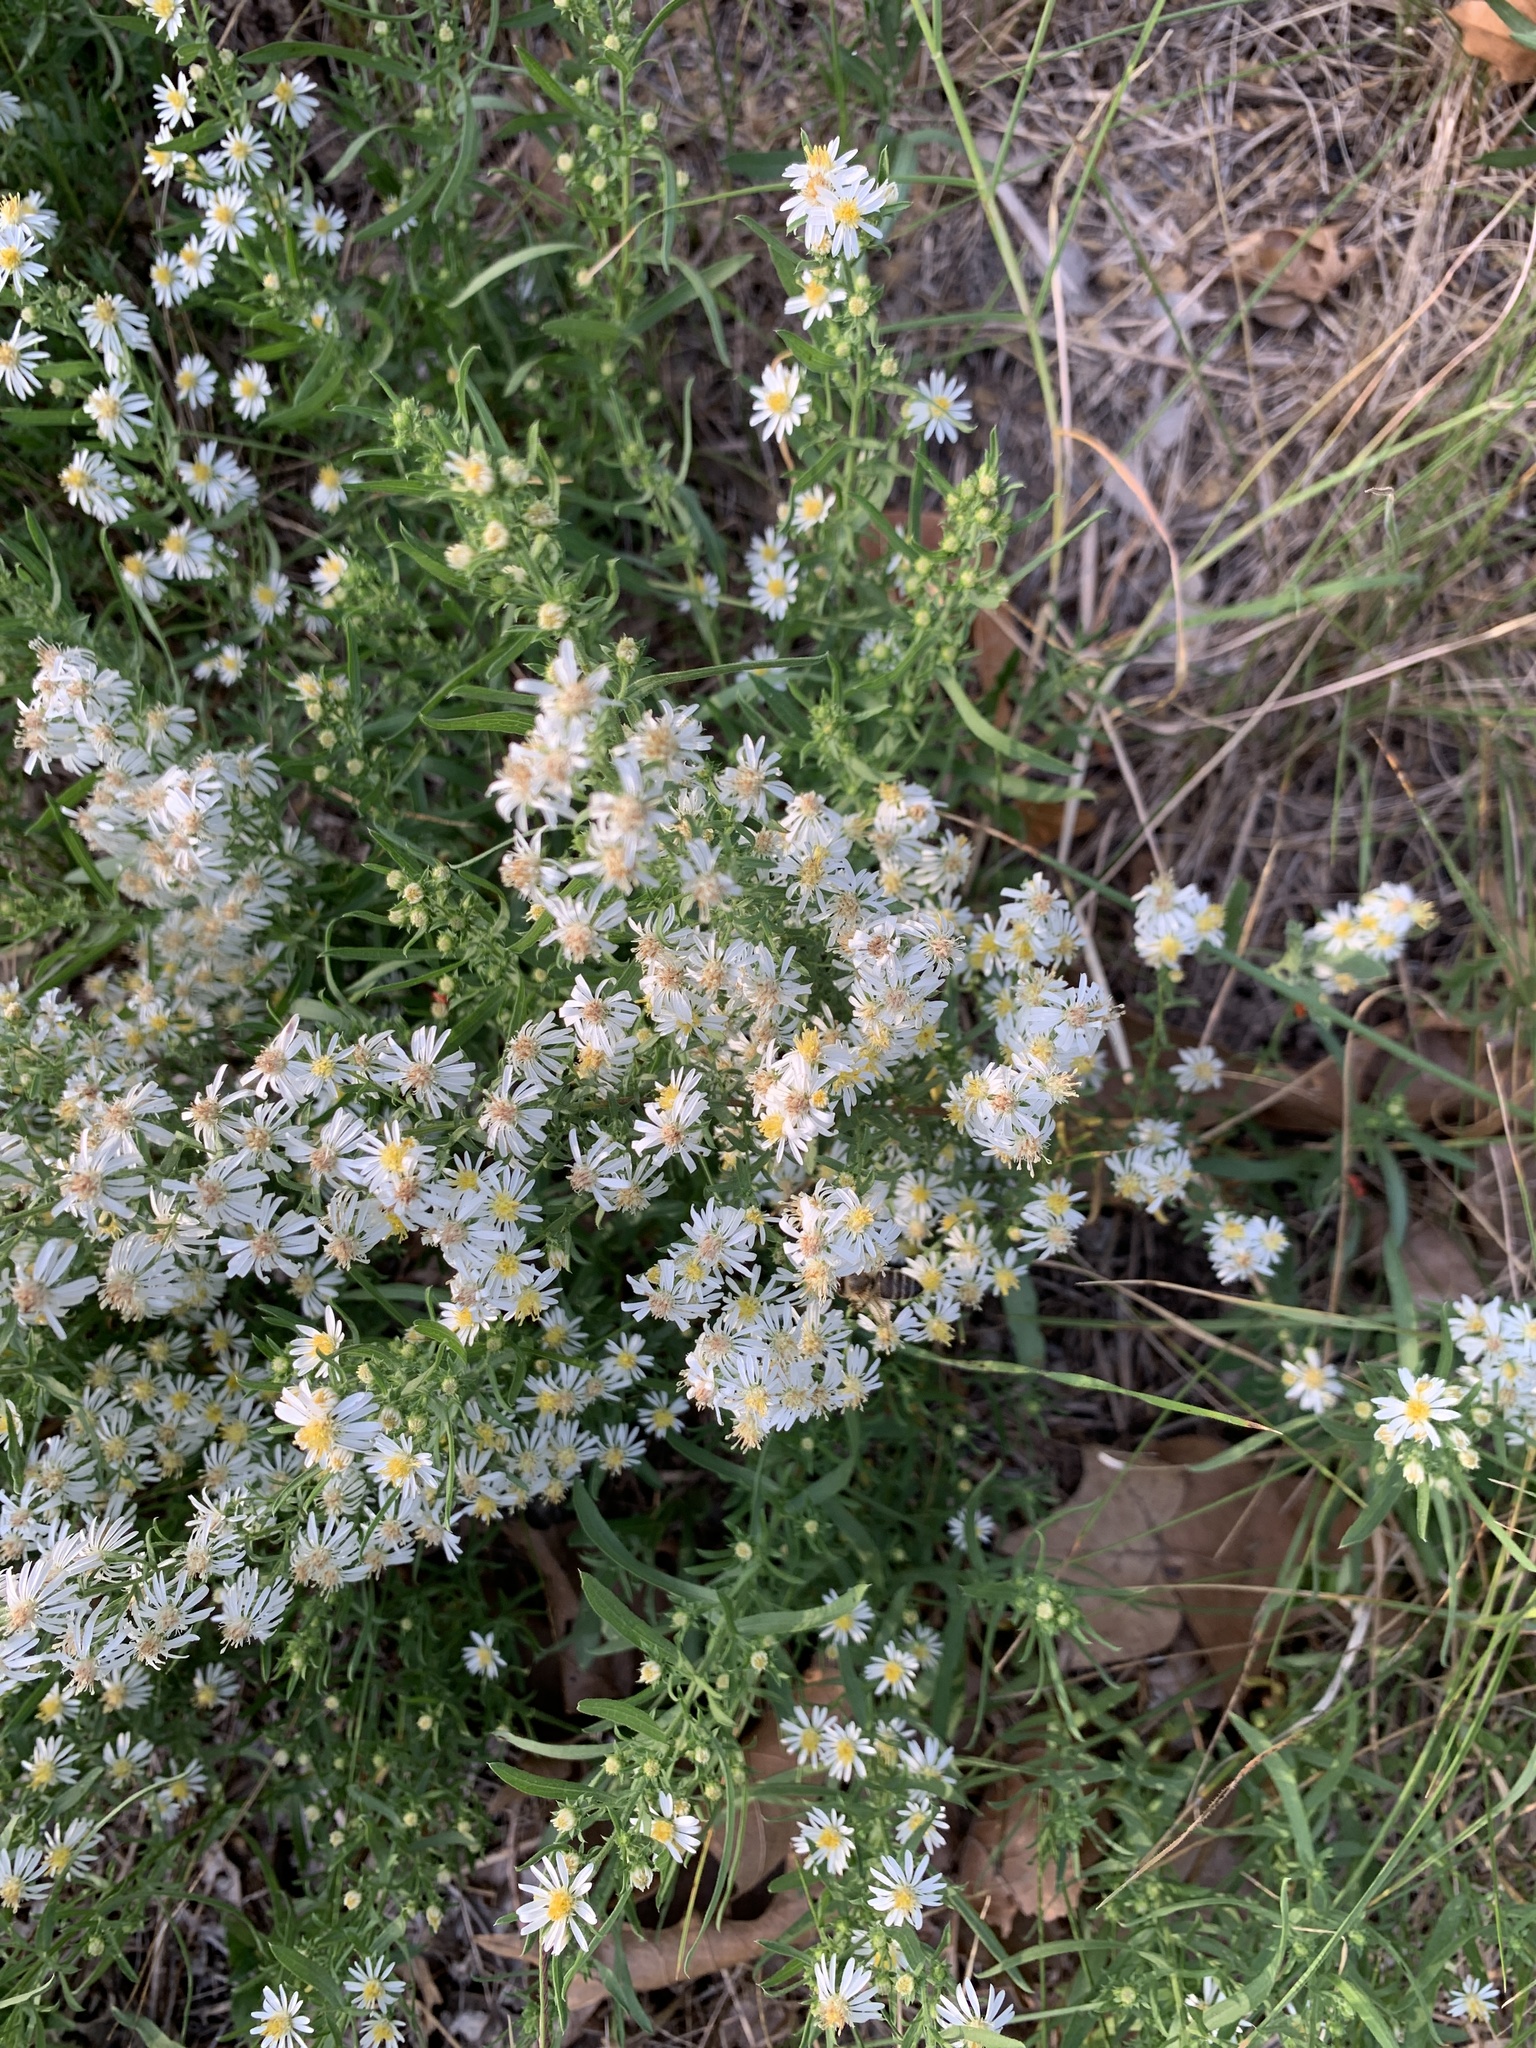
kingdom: Plantae
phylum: Tracheophyta
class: Magnoliopsida
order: Asterales
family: Asteraceae
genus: Symphyotrichum
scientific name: Symphyotrichum ericoides
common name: Heath aster
